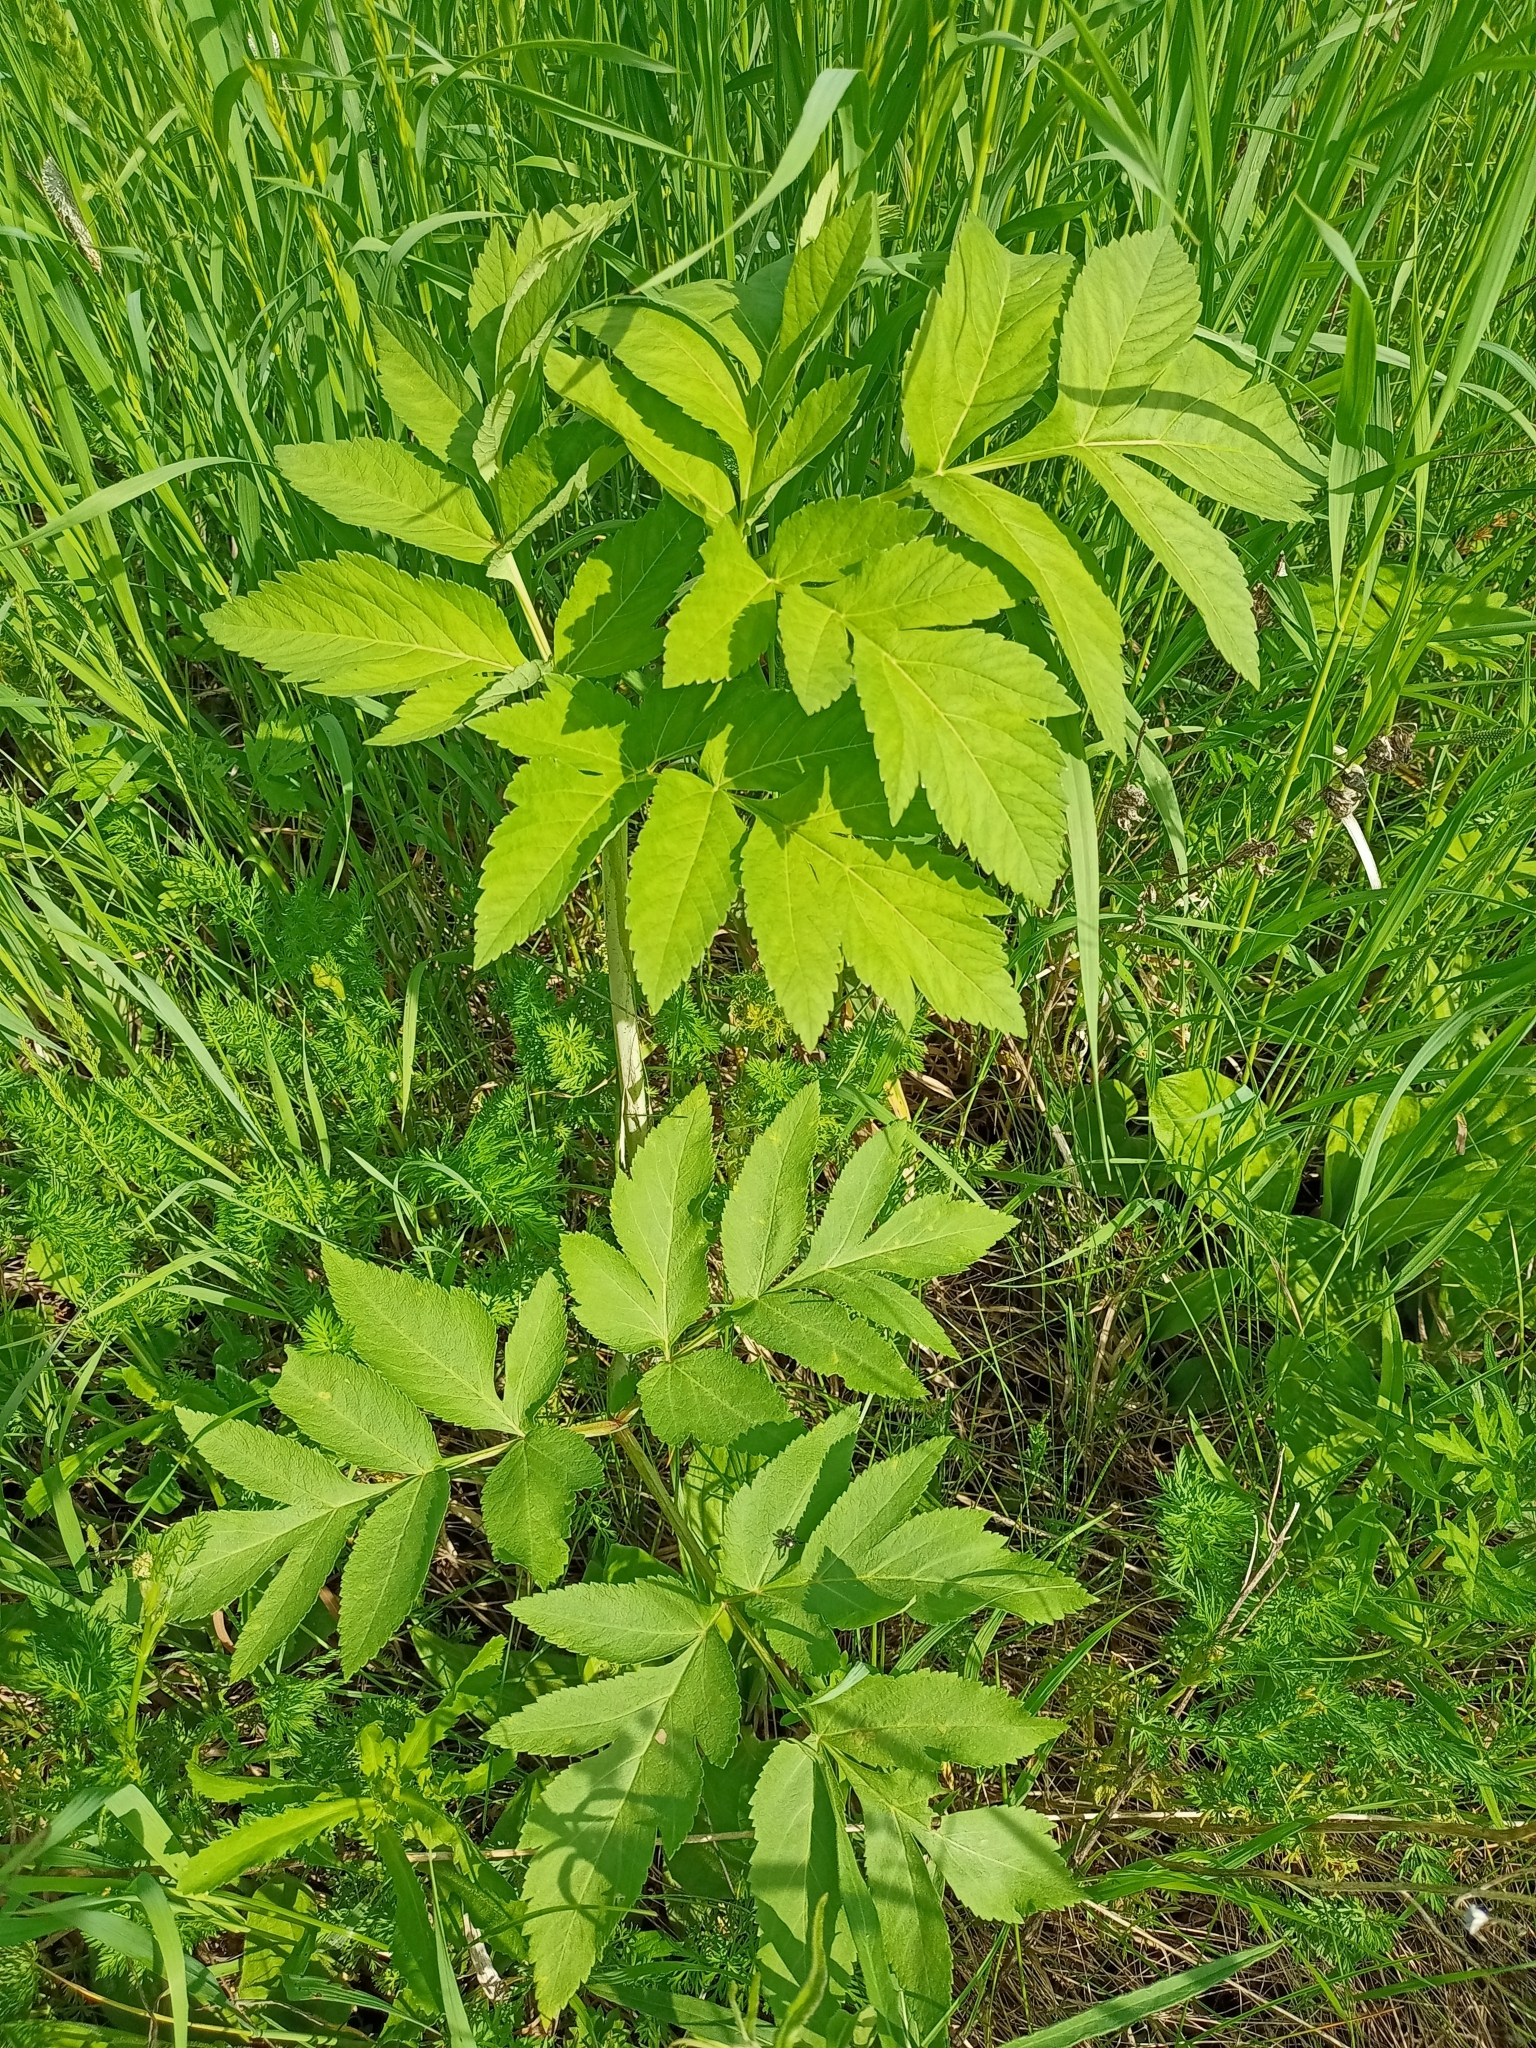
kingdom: Plantae
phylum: Tracheophyta
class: Magnoliopsida
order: Apiales
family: Apiaceae
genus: Angelica
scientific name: Angelica sylvestris
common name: Wild angelica
